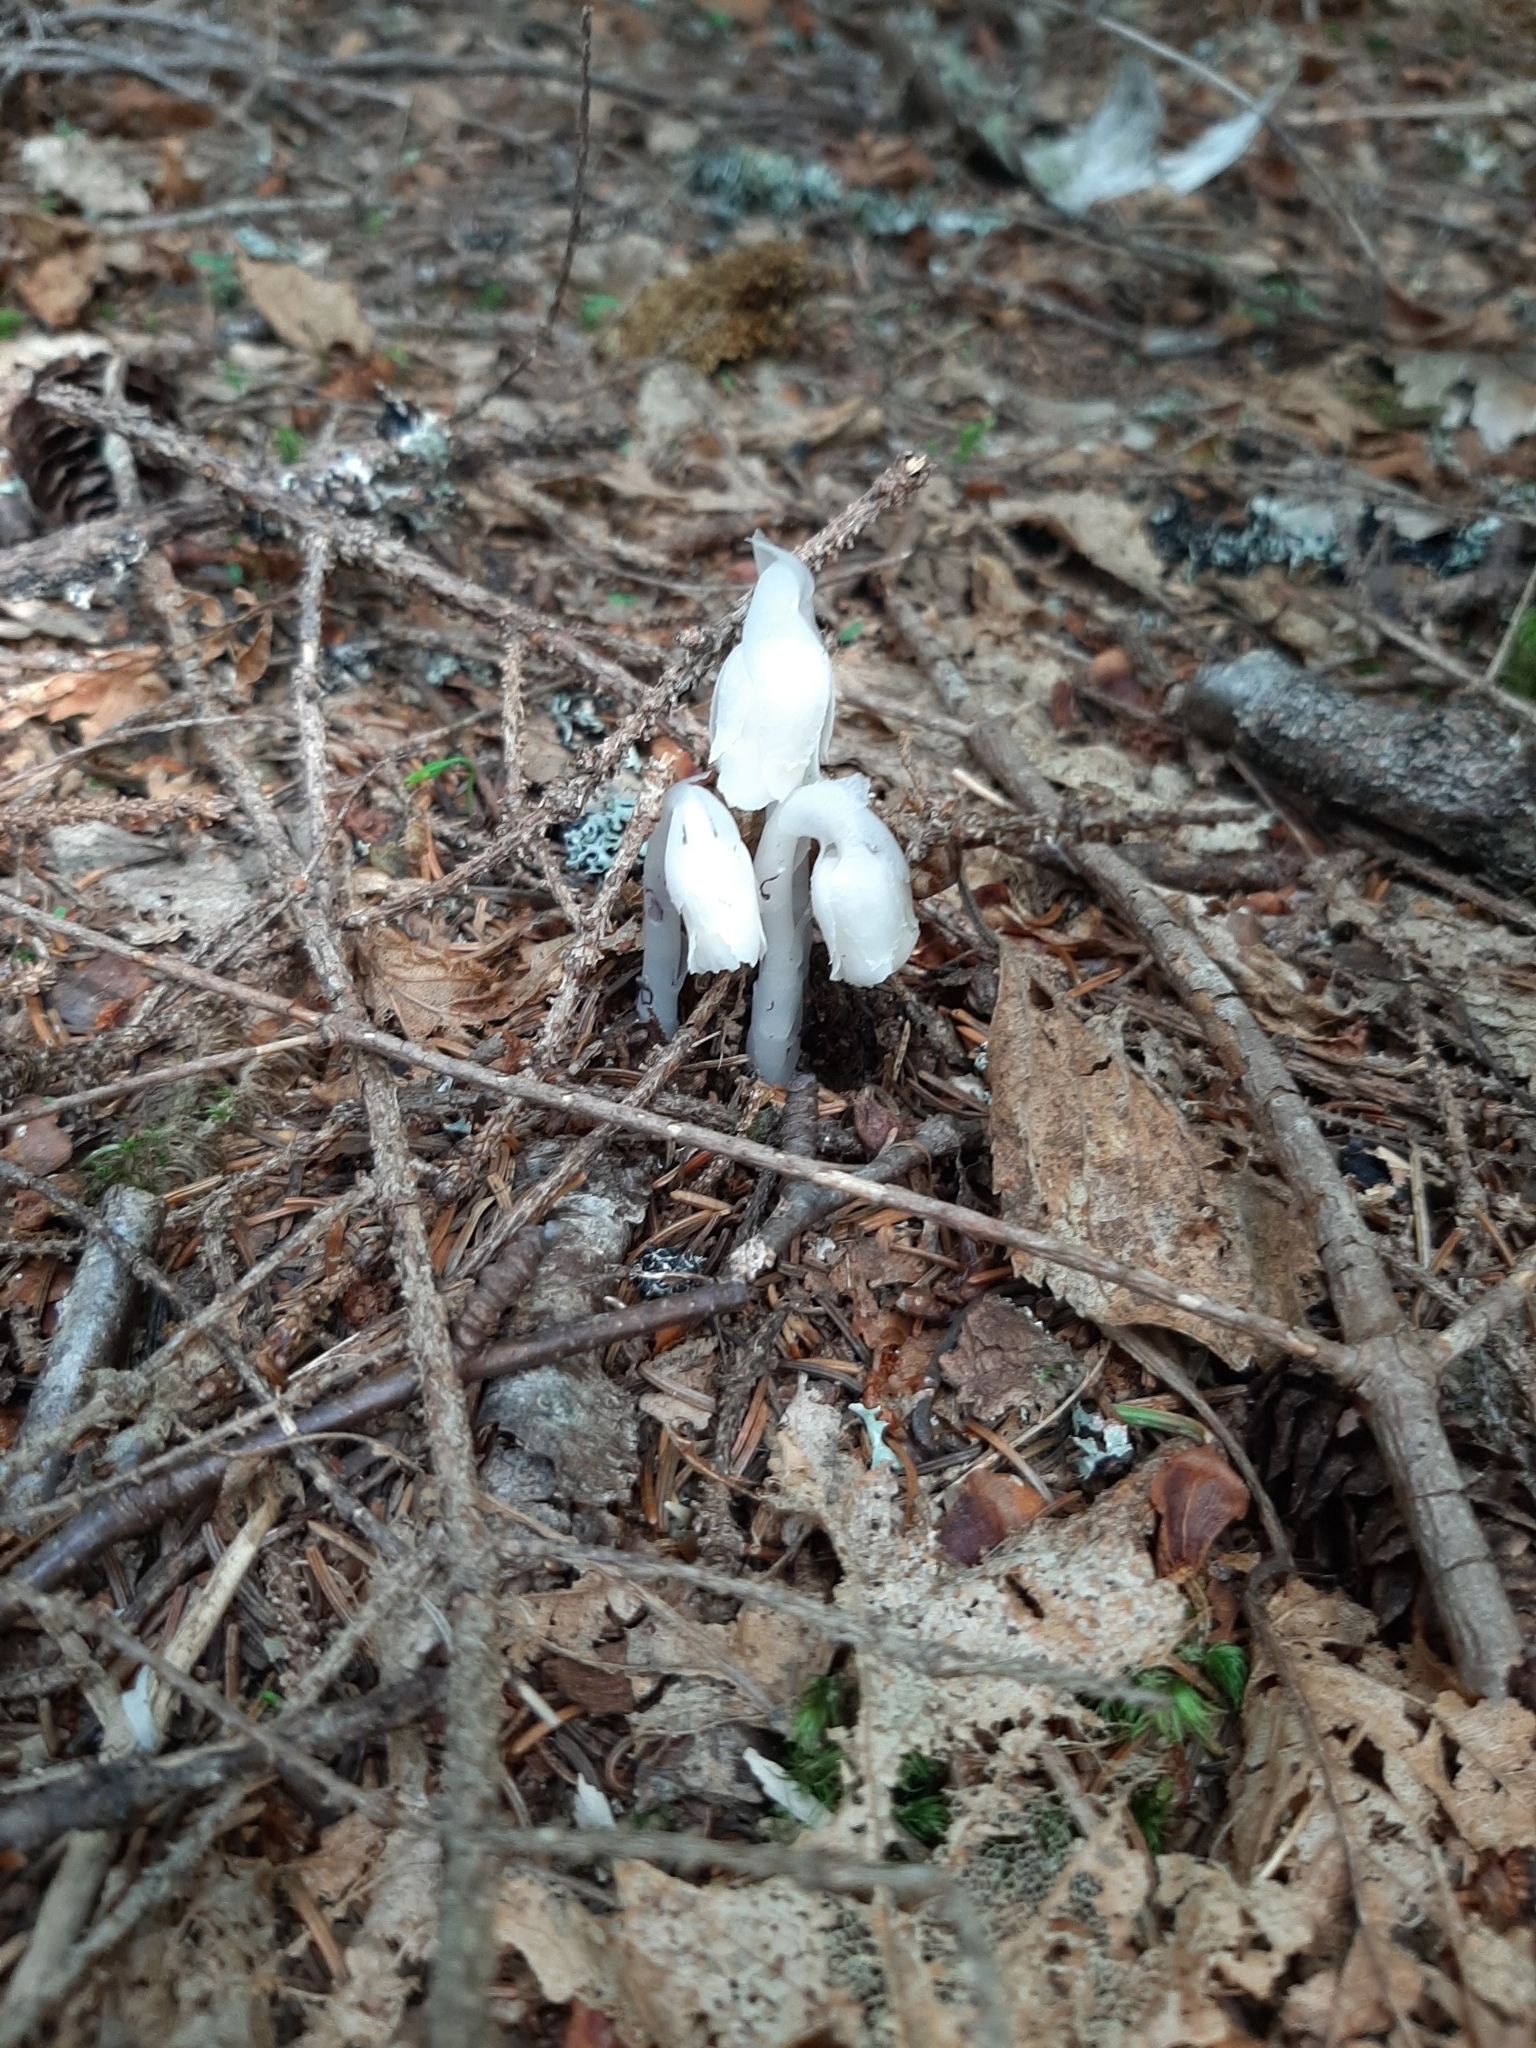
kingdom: Plantae
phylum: Tracheophyta
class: Magnoliopsida
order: Ericales
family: Ericaceae
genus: Monotropa
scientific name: Monotropa uniflora
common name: Convulsion root
